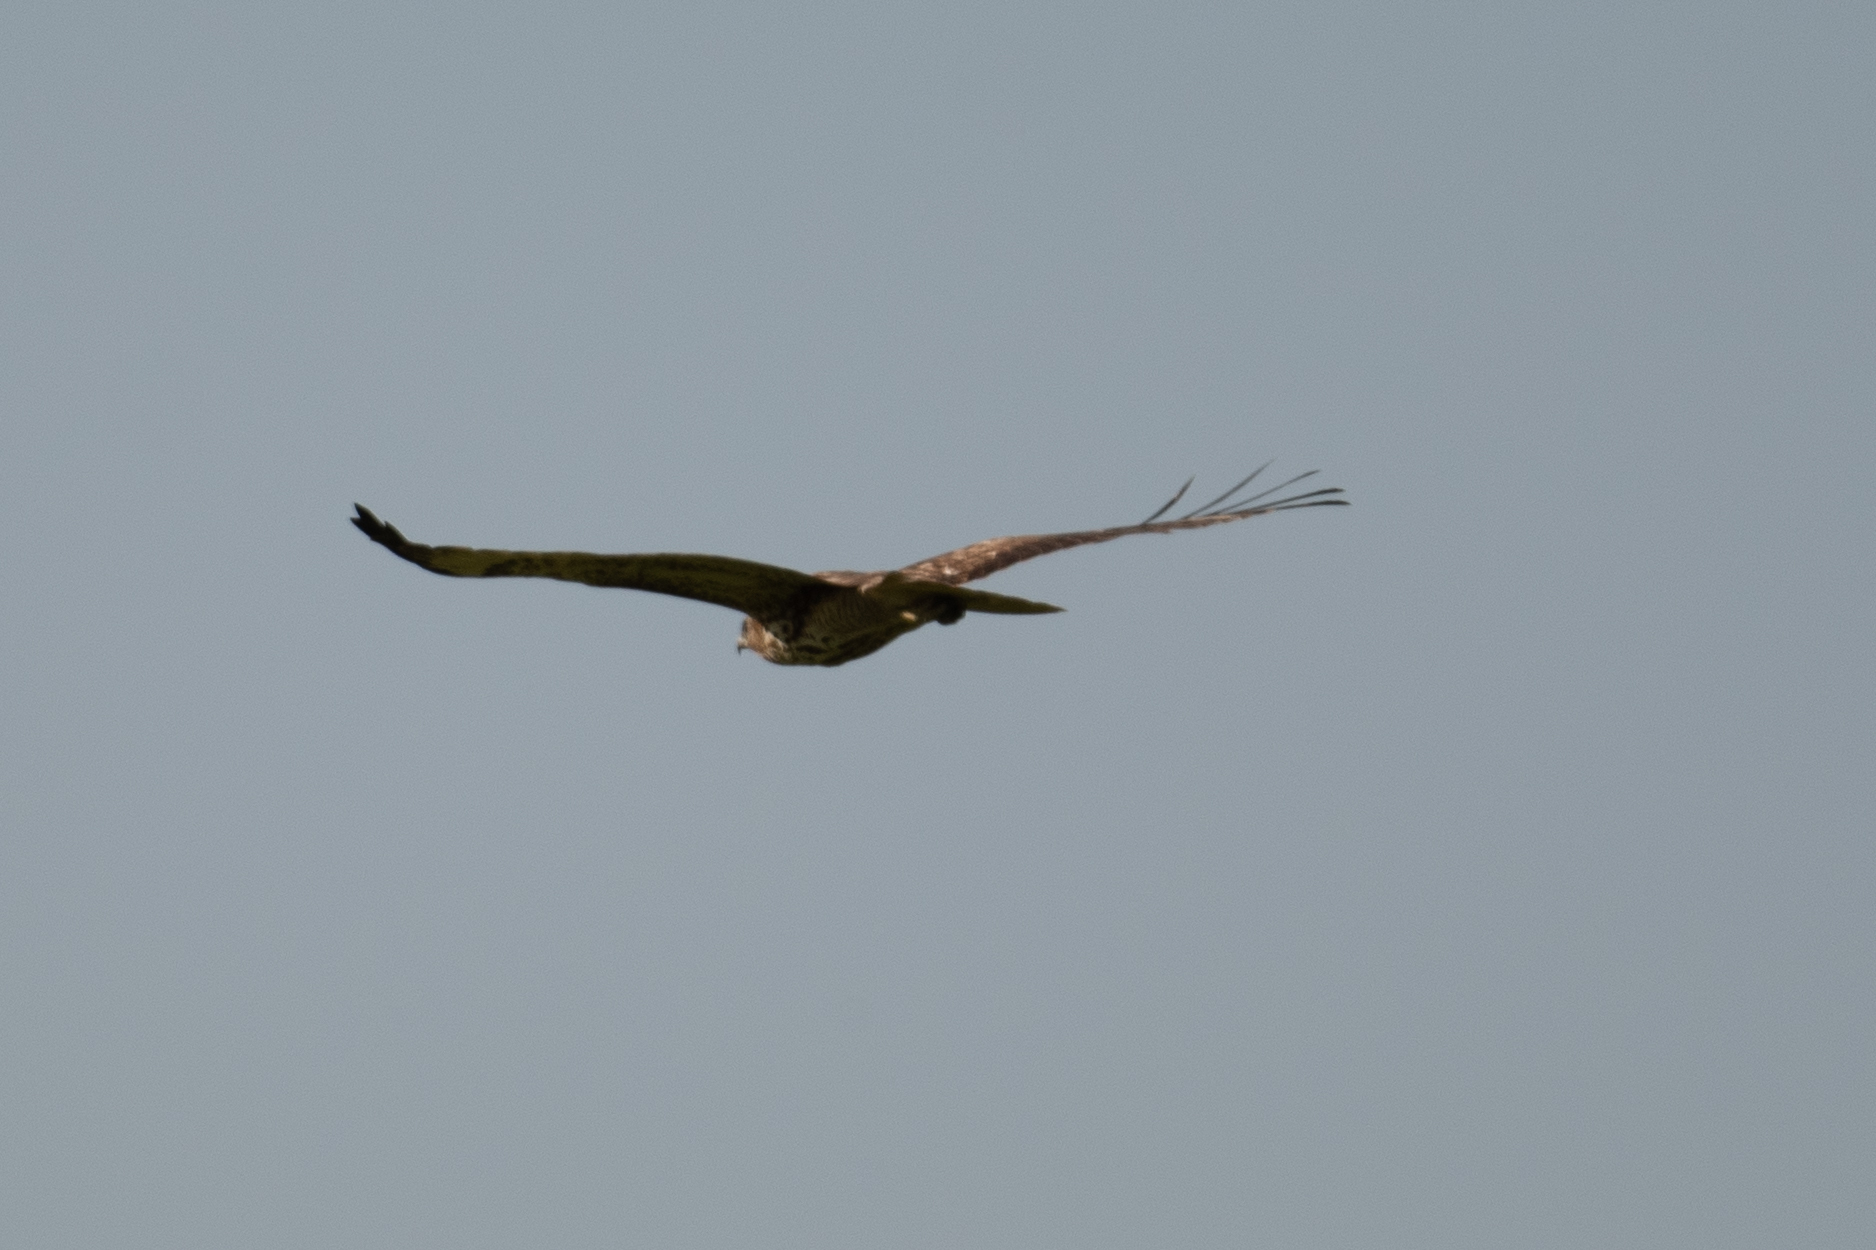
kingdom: Animalia
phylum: Chordata
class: Aves
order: Accipitriformes
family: Accipitridae
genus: Circus
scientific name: Circus cyaneus
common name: Hen harrier
